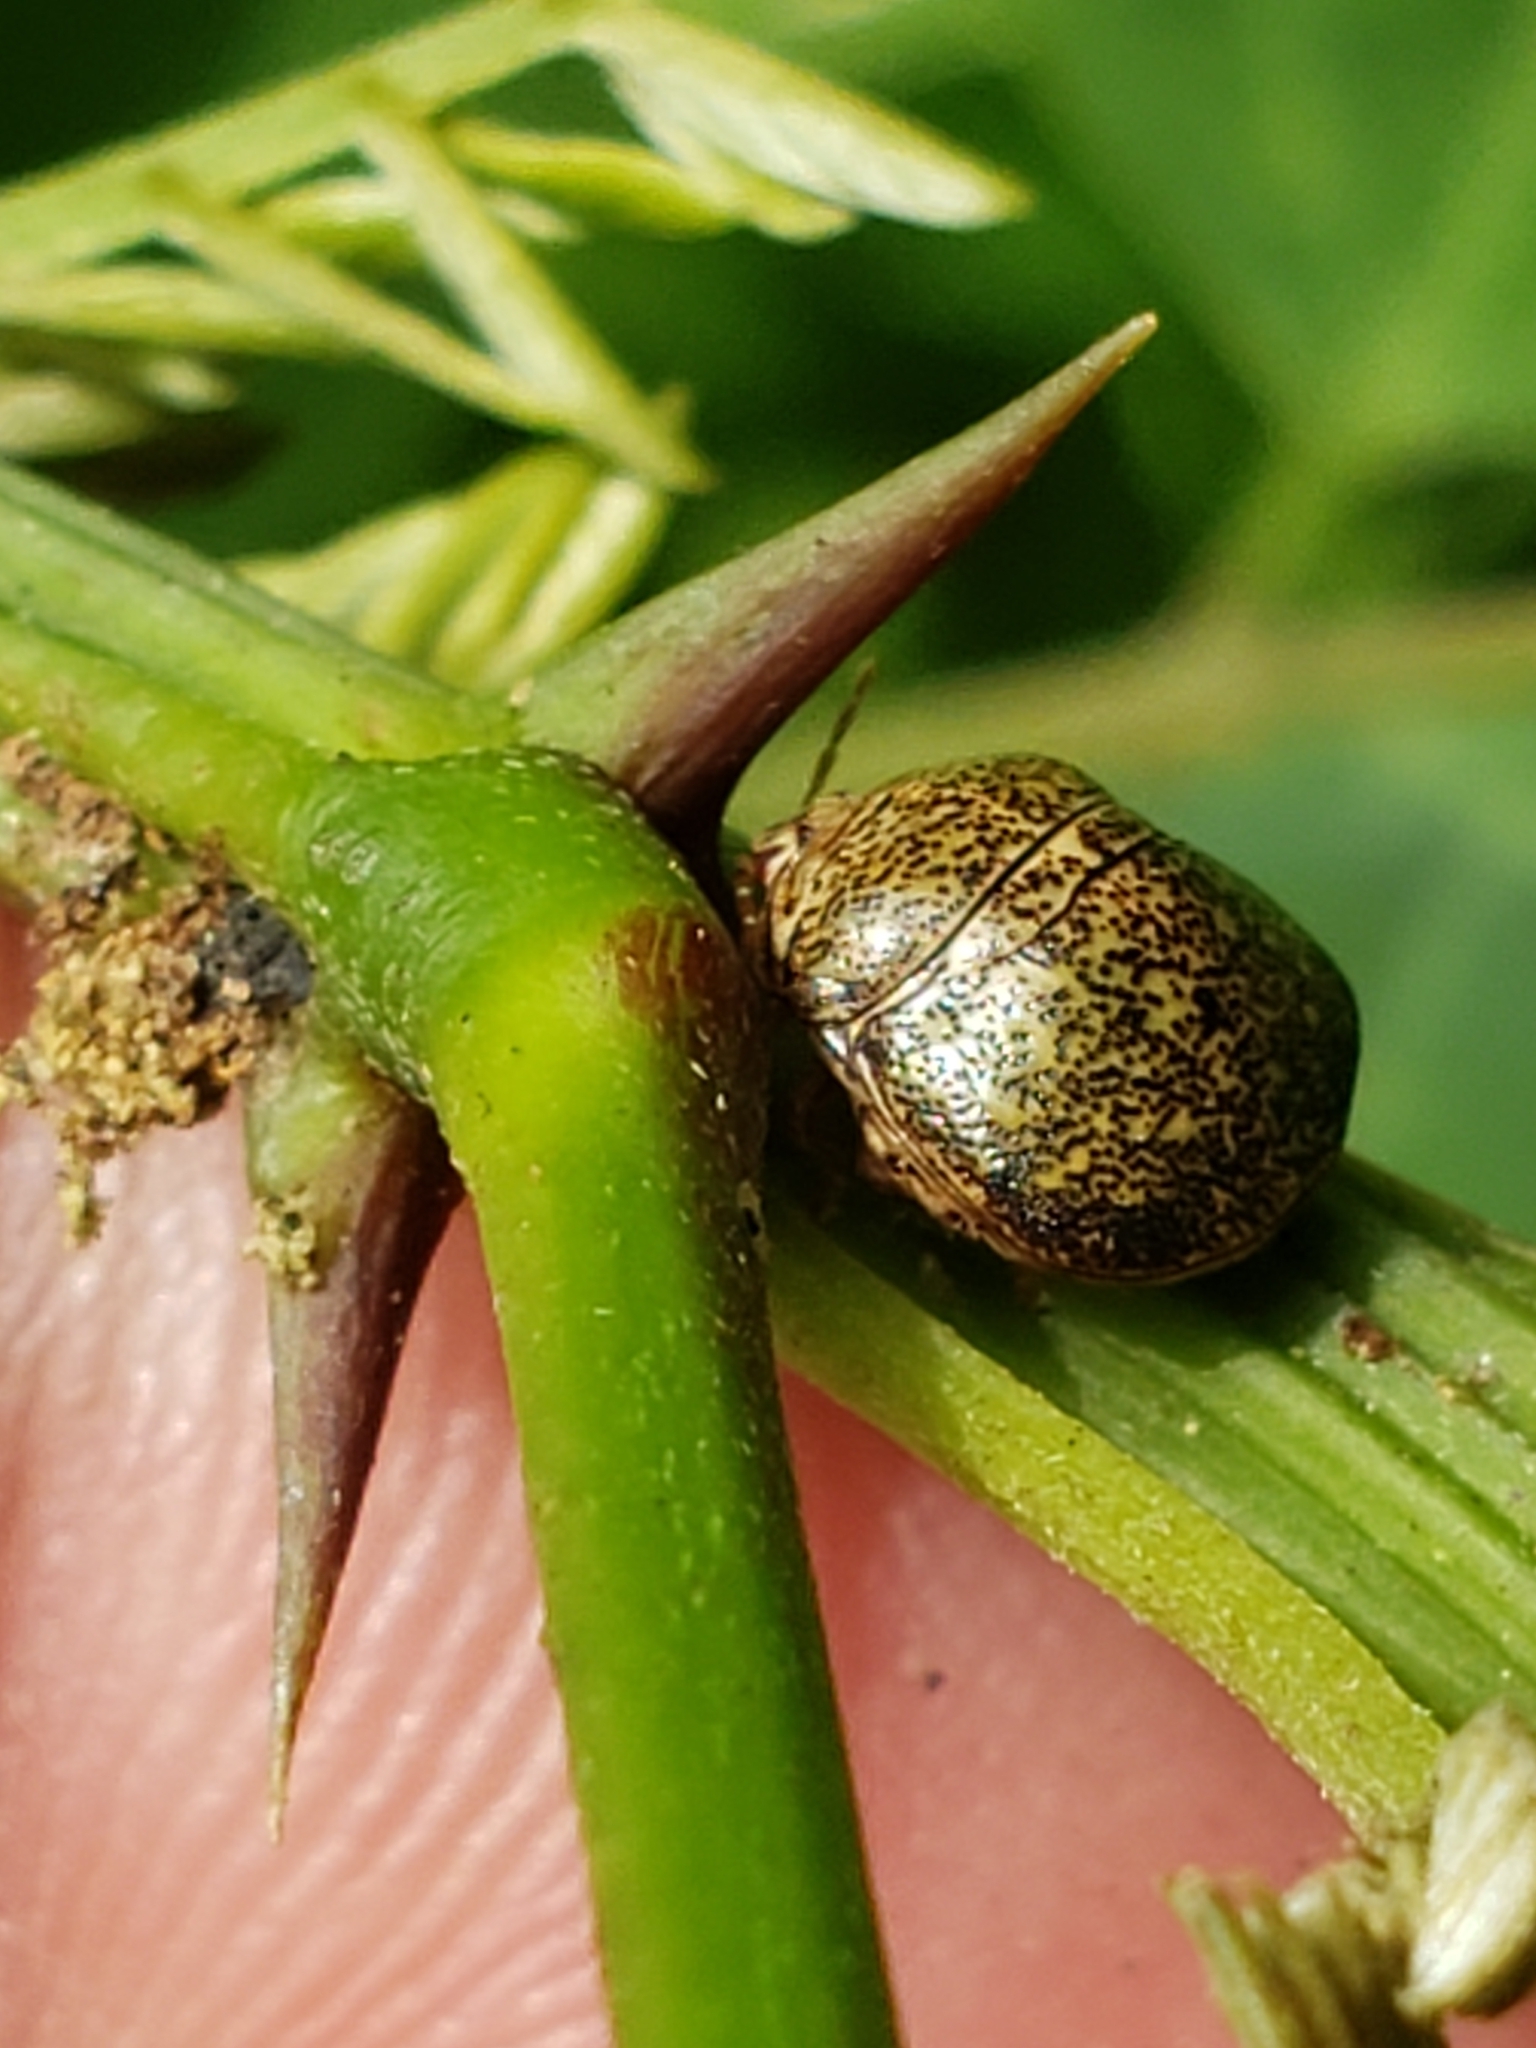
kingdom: Animalia
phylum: Arthropoda
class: Insecta
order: Hemiptera
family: Plataspidae
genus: Megacopta
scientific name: Megacopta cribraria
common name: Bean plataspid
